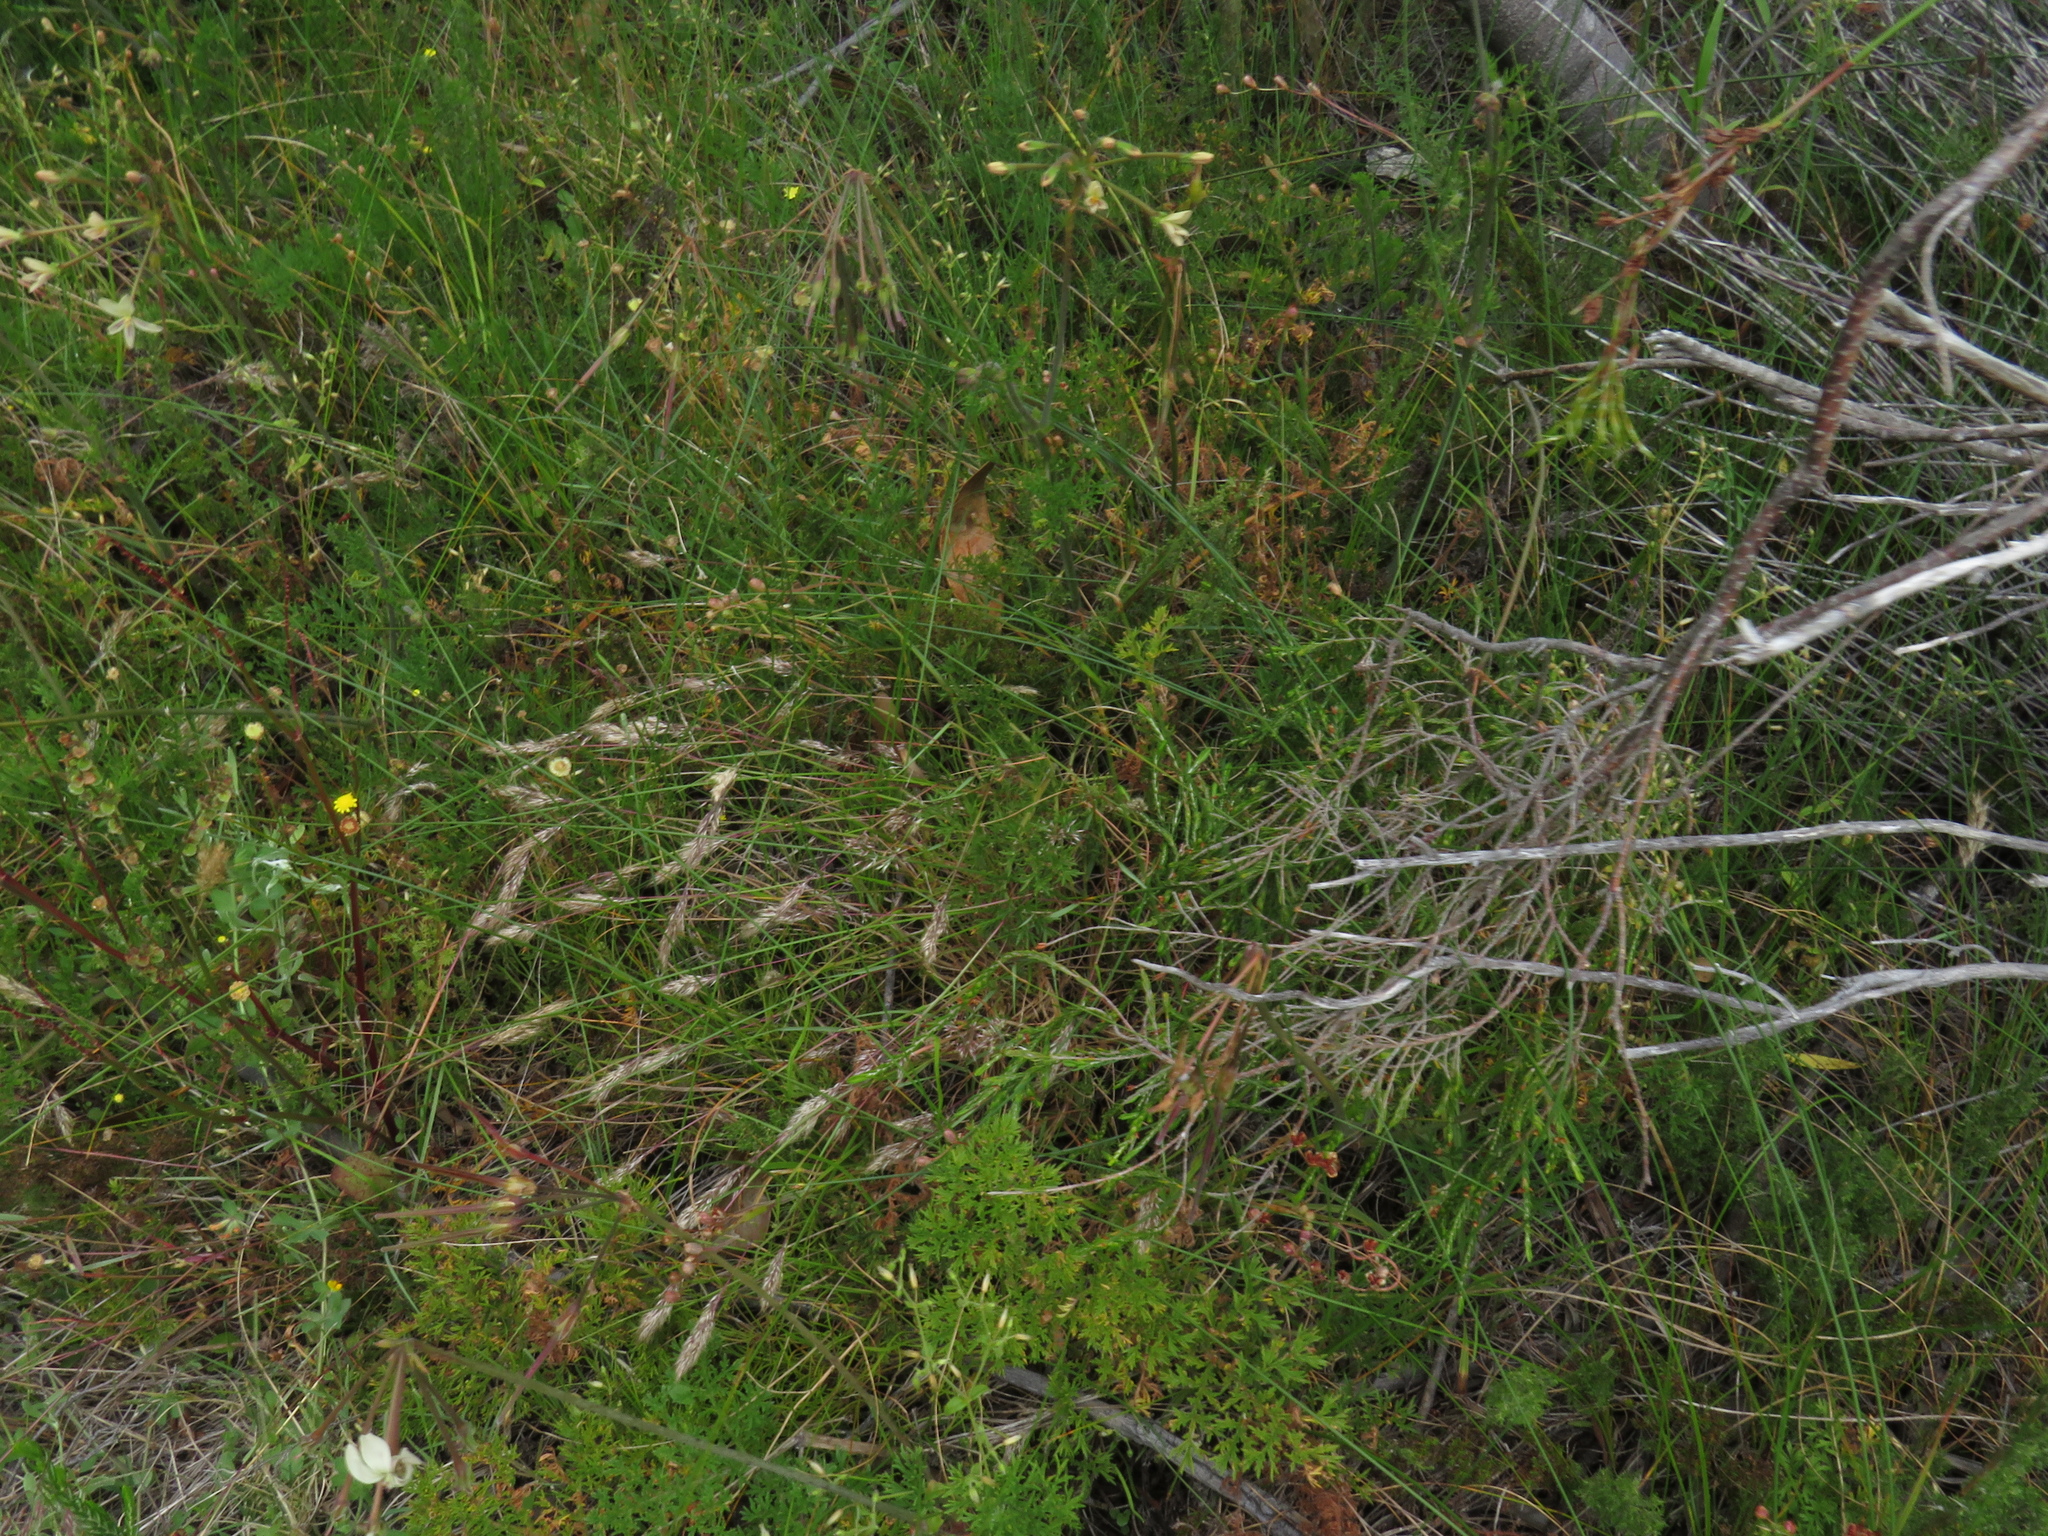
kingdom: Plantae
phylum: Tracheophyta
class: Magnoliopsida
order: Geraniales
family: Geraniaceae
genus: Pelargonium
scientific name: Pelargonium triste
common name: Night-scent pelargonium
